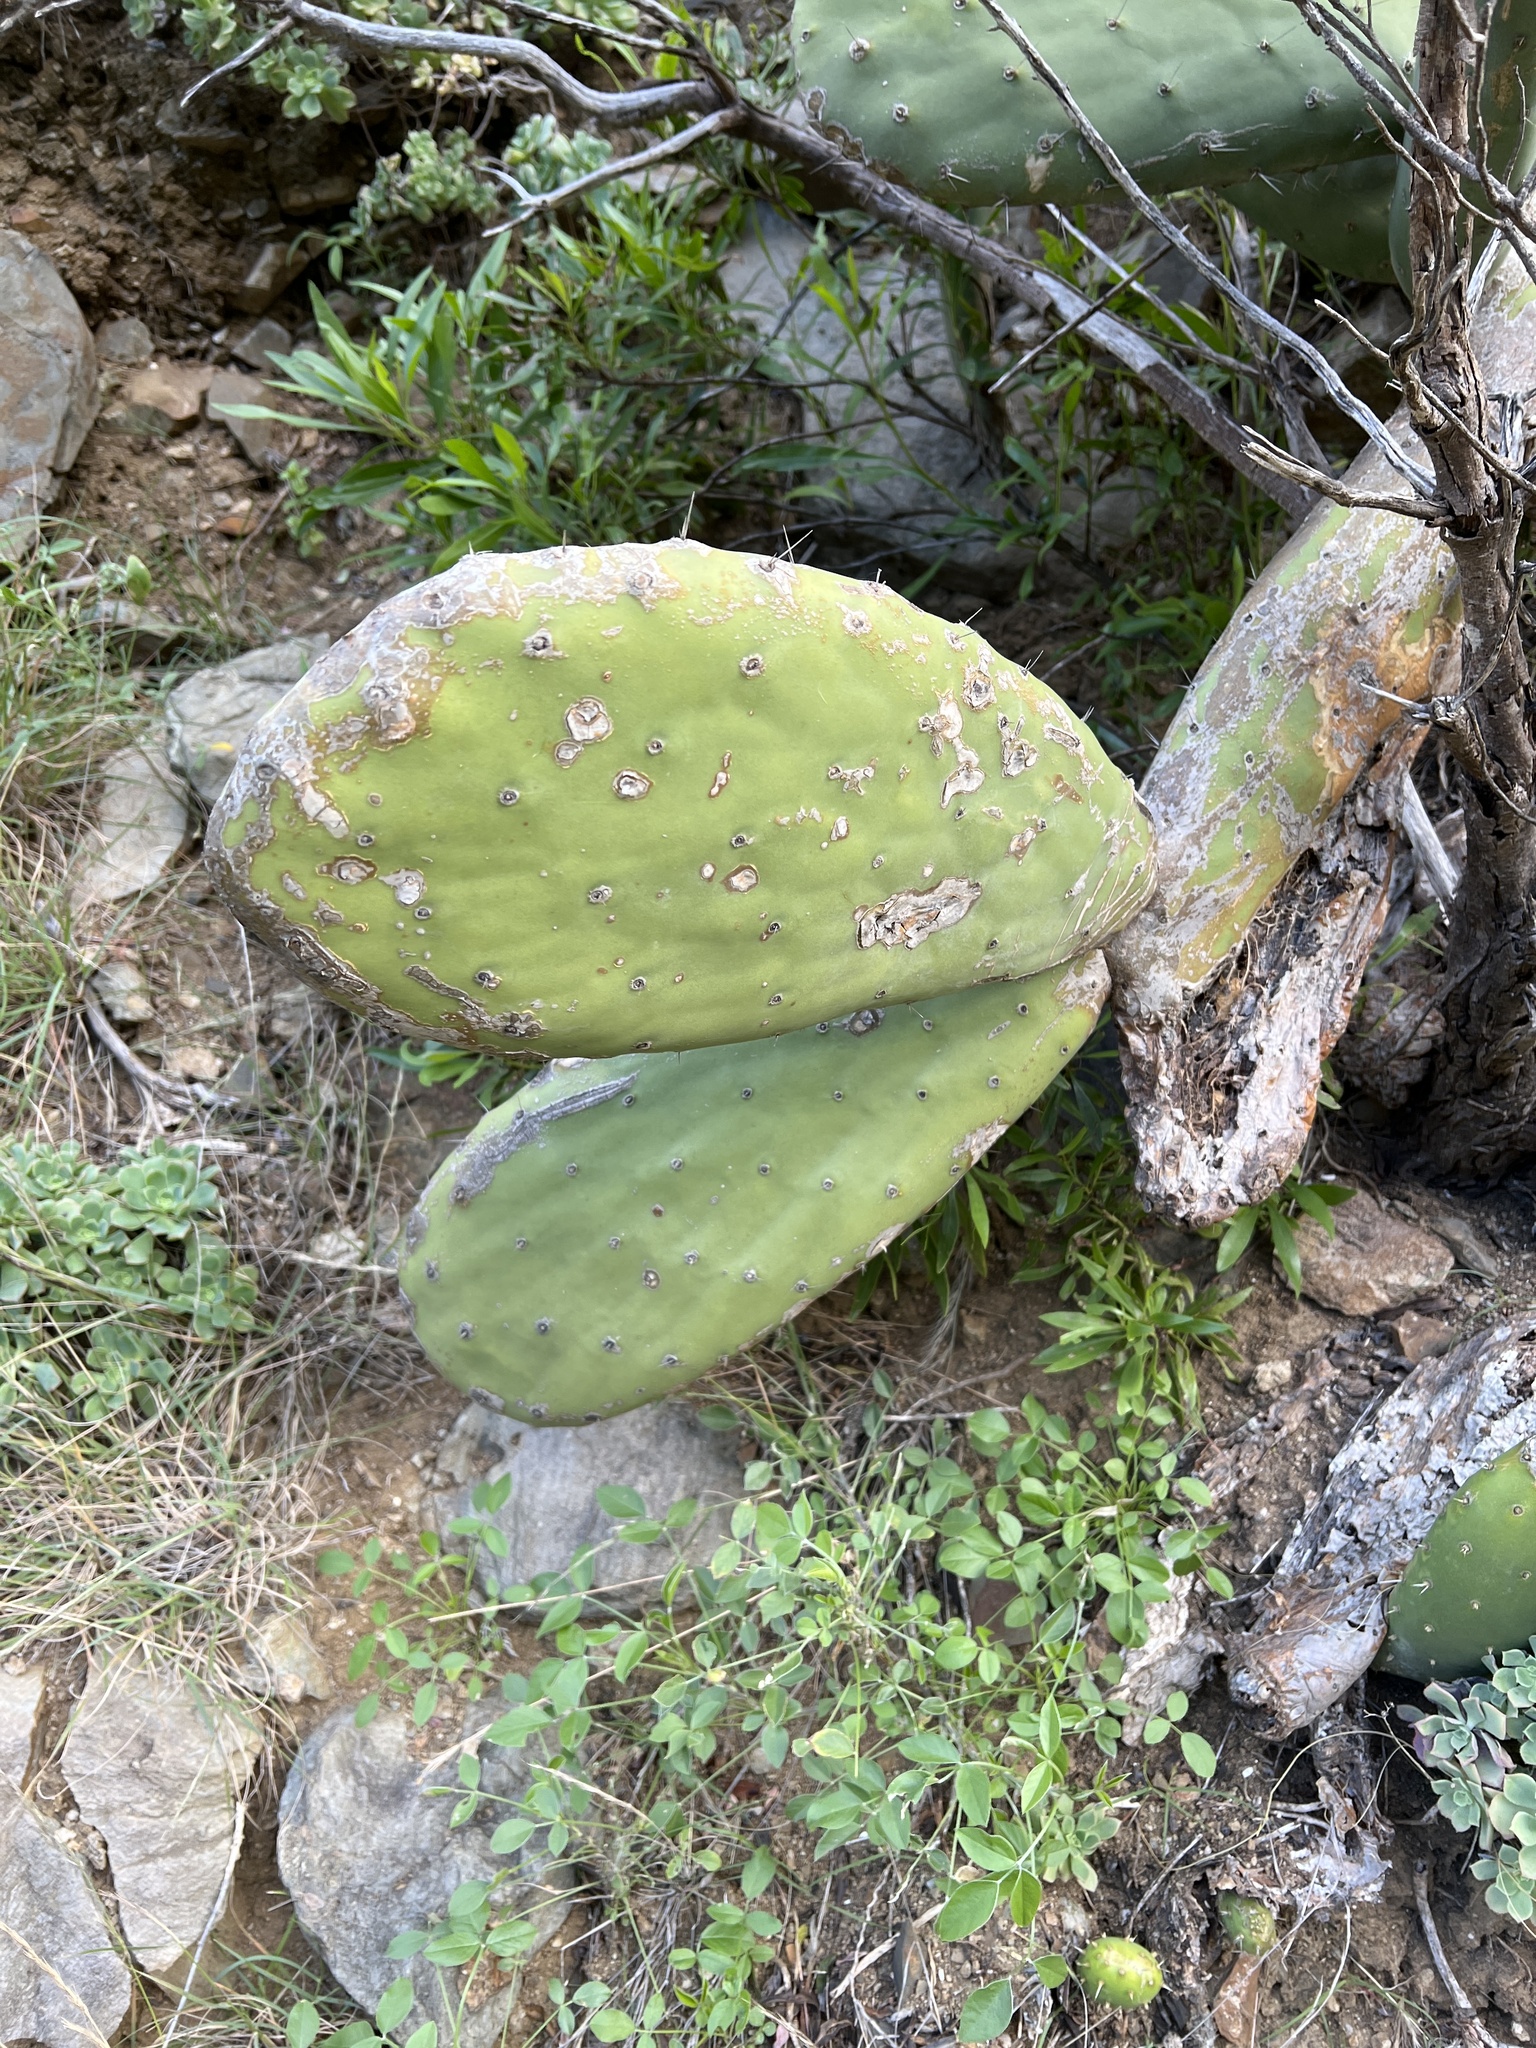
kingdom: Plantae
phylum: Tracheophyta
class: Magnoliopsida
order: Caryophyllales
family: Cactaceae
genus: Opuntia
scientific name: Opuntia ficus-indica
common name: Barbary fig
